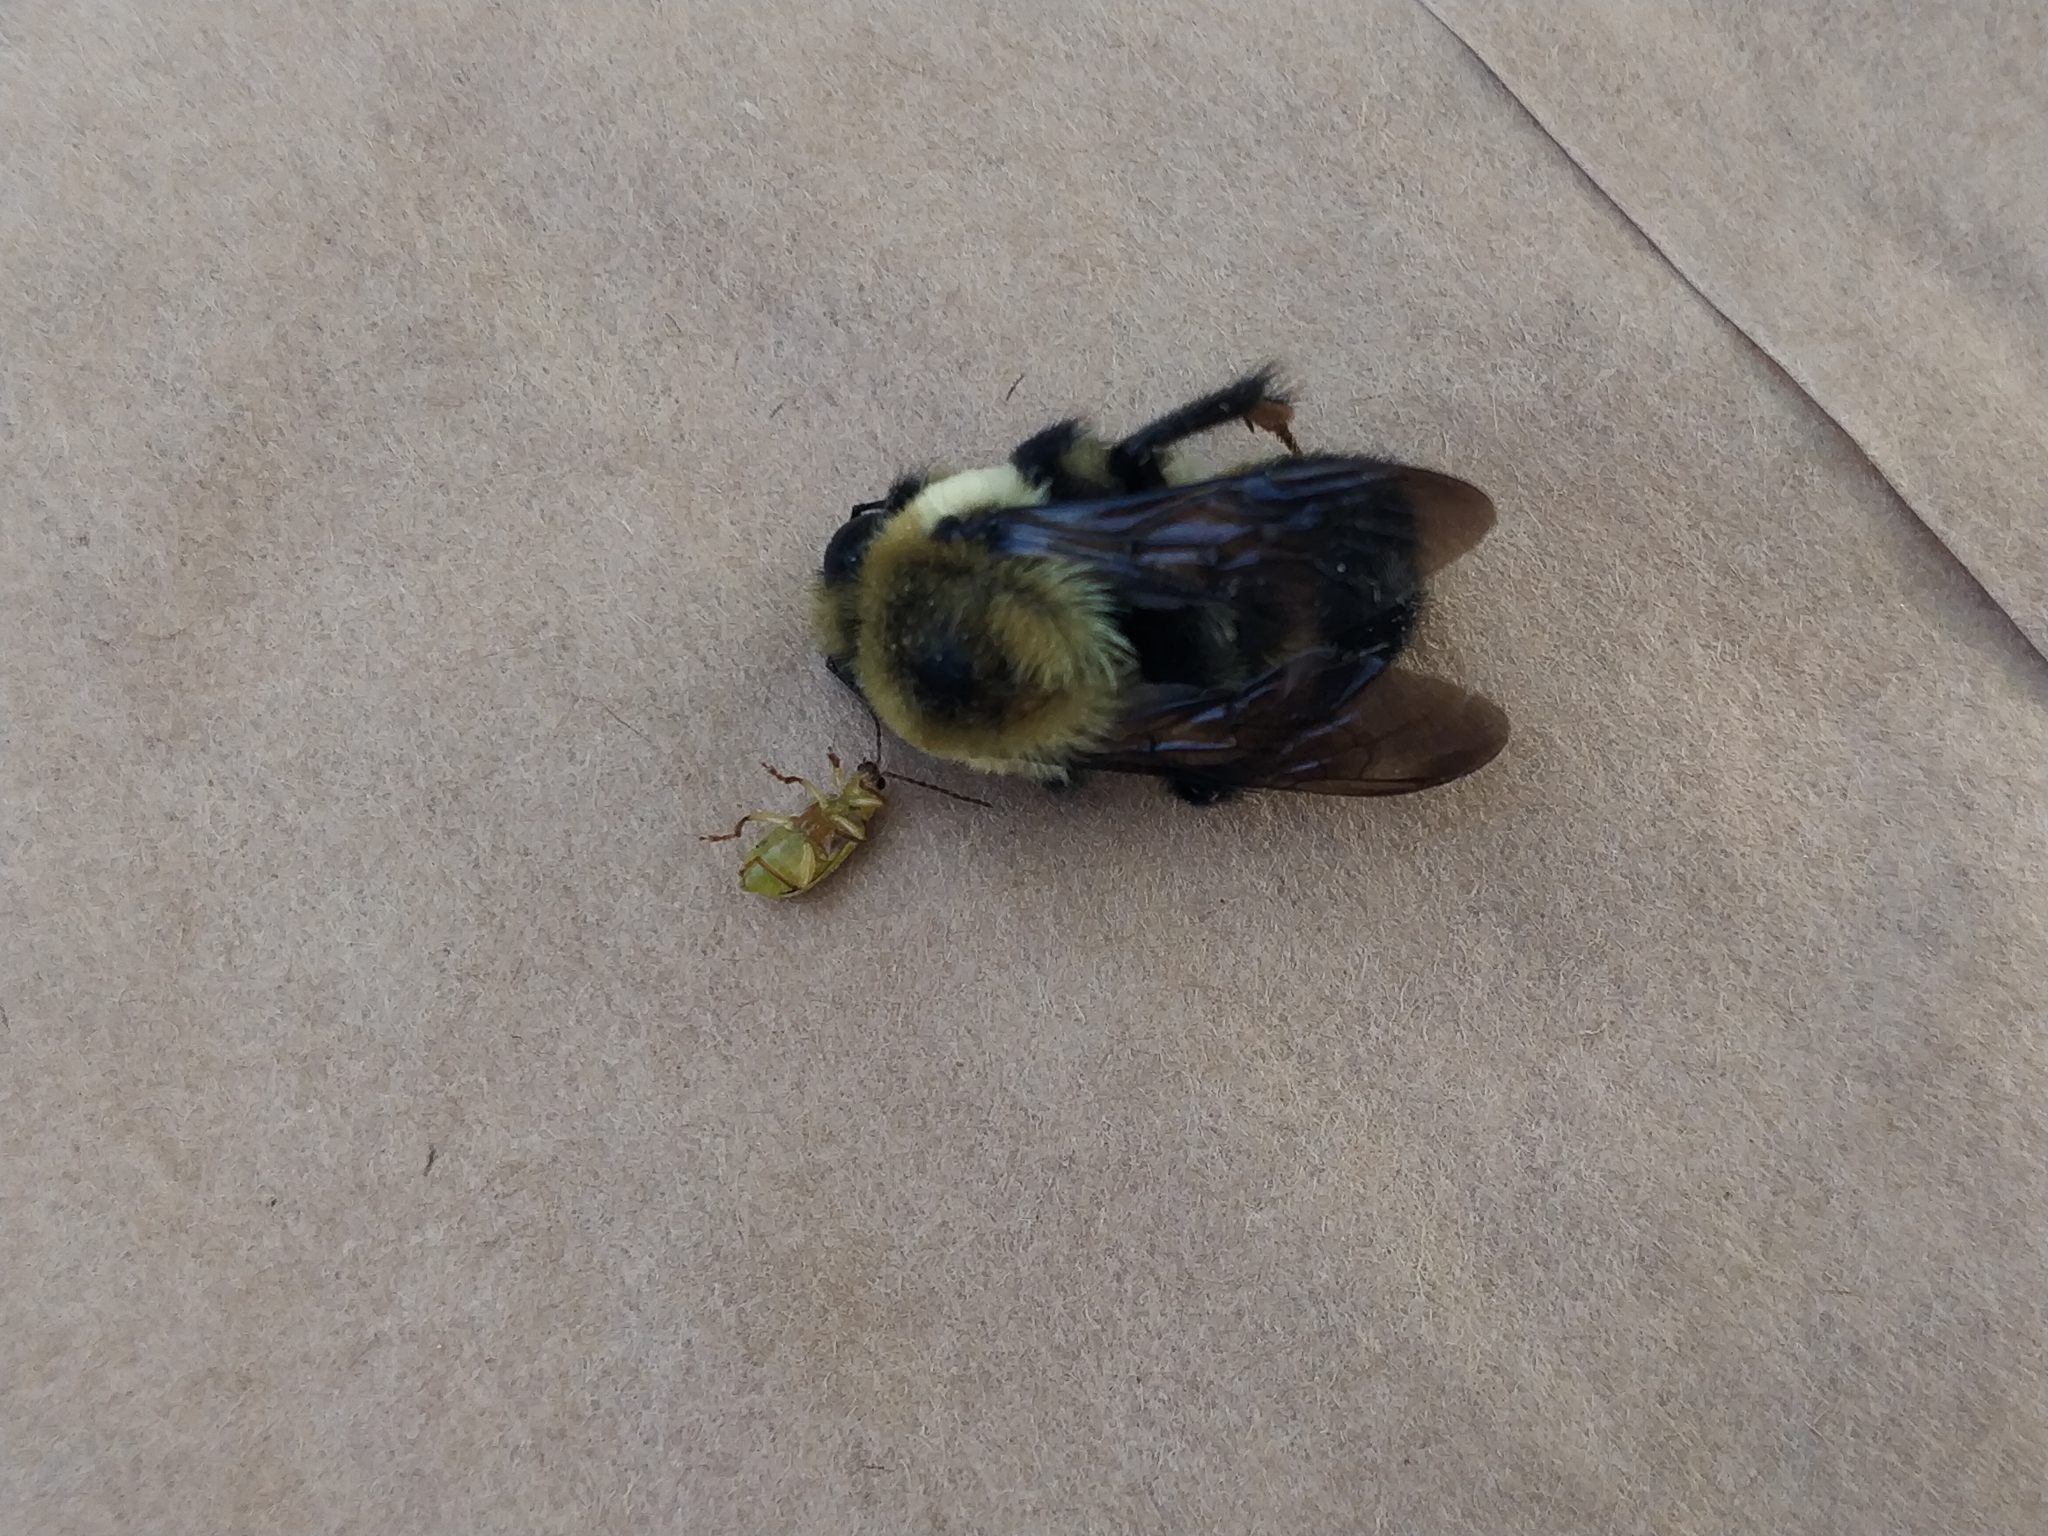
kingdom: Animalia
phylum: Arthropoda
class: Insecta
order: Hymenoptera
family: Apidae
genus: Bombus
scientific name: Bombus griseocollis
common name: Brown-belted bumble bee
